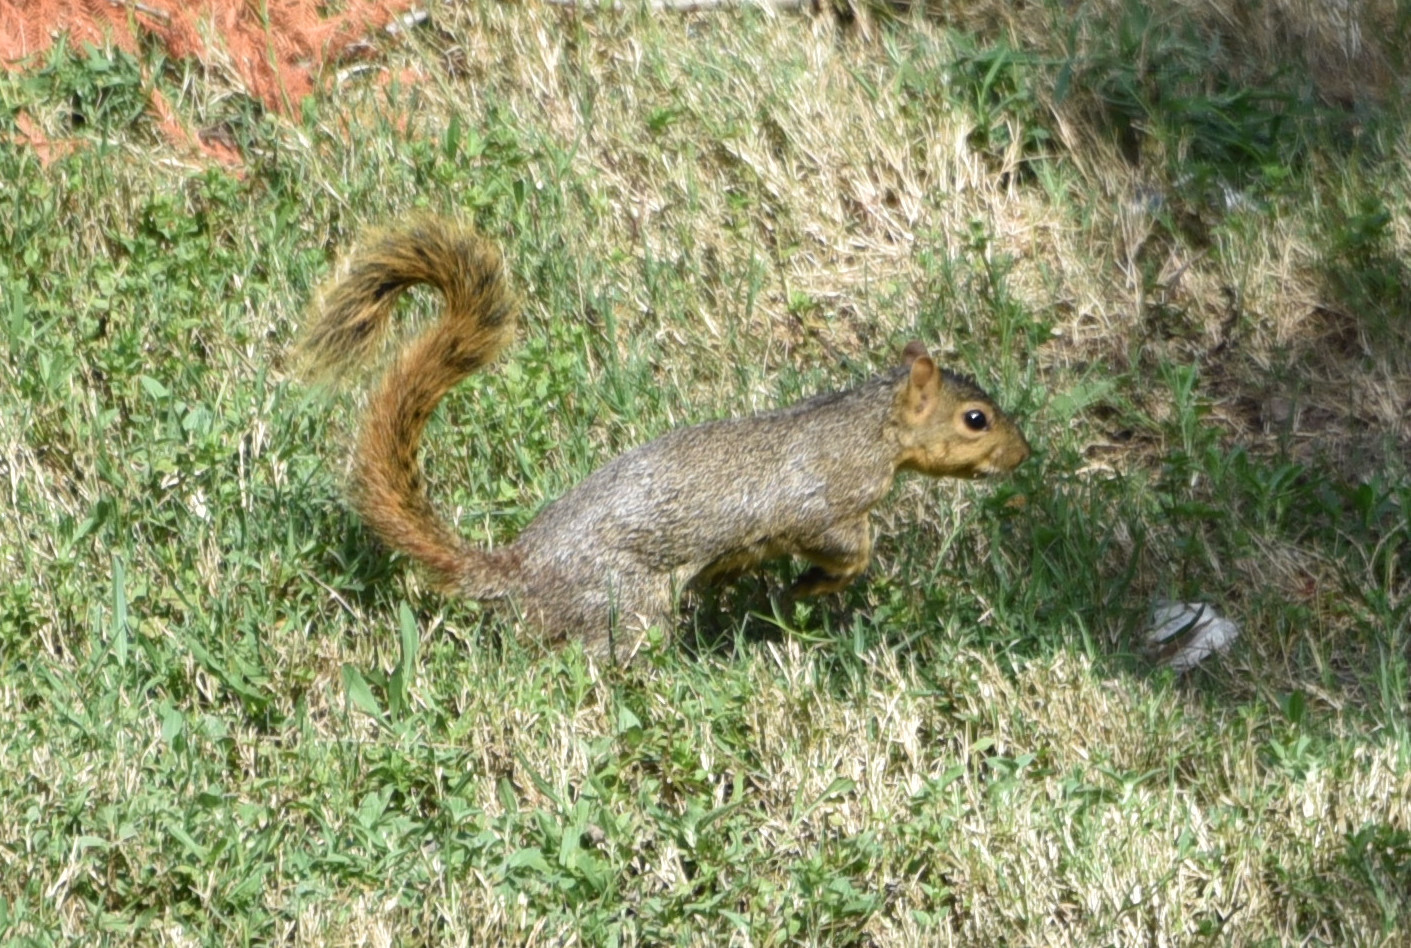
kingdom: Animalia
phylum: Chordata
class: Mammalia
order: Rodentia
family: Sciuridae
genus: Sciurus
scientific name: Sciurus niger
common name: Fox squirrel
